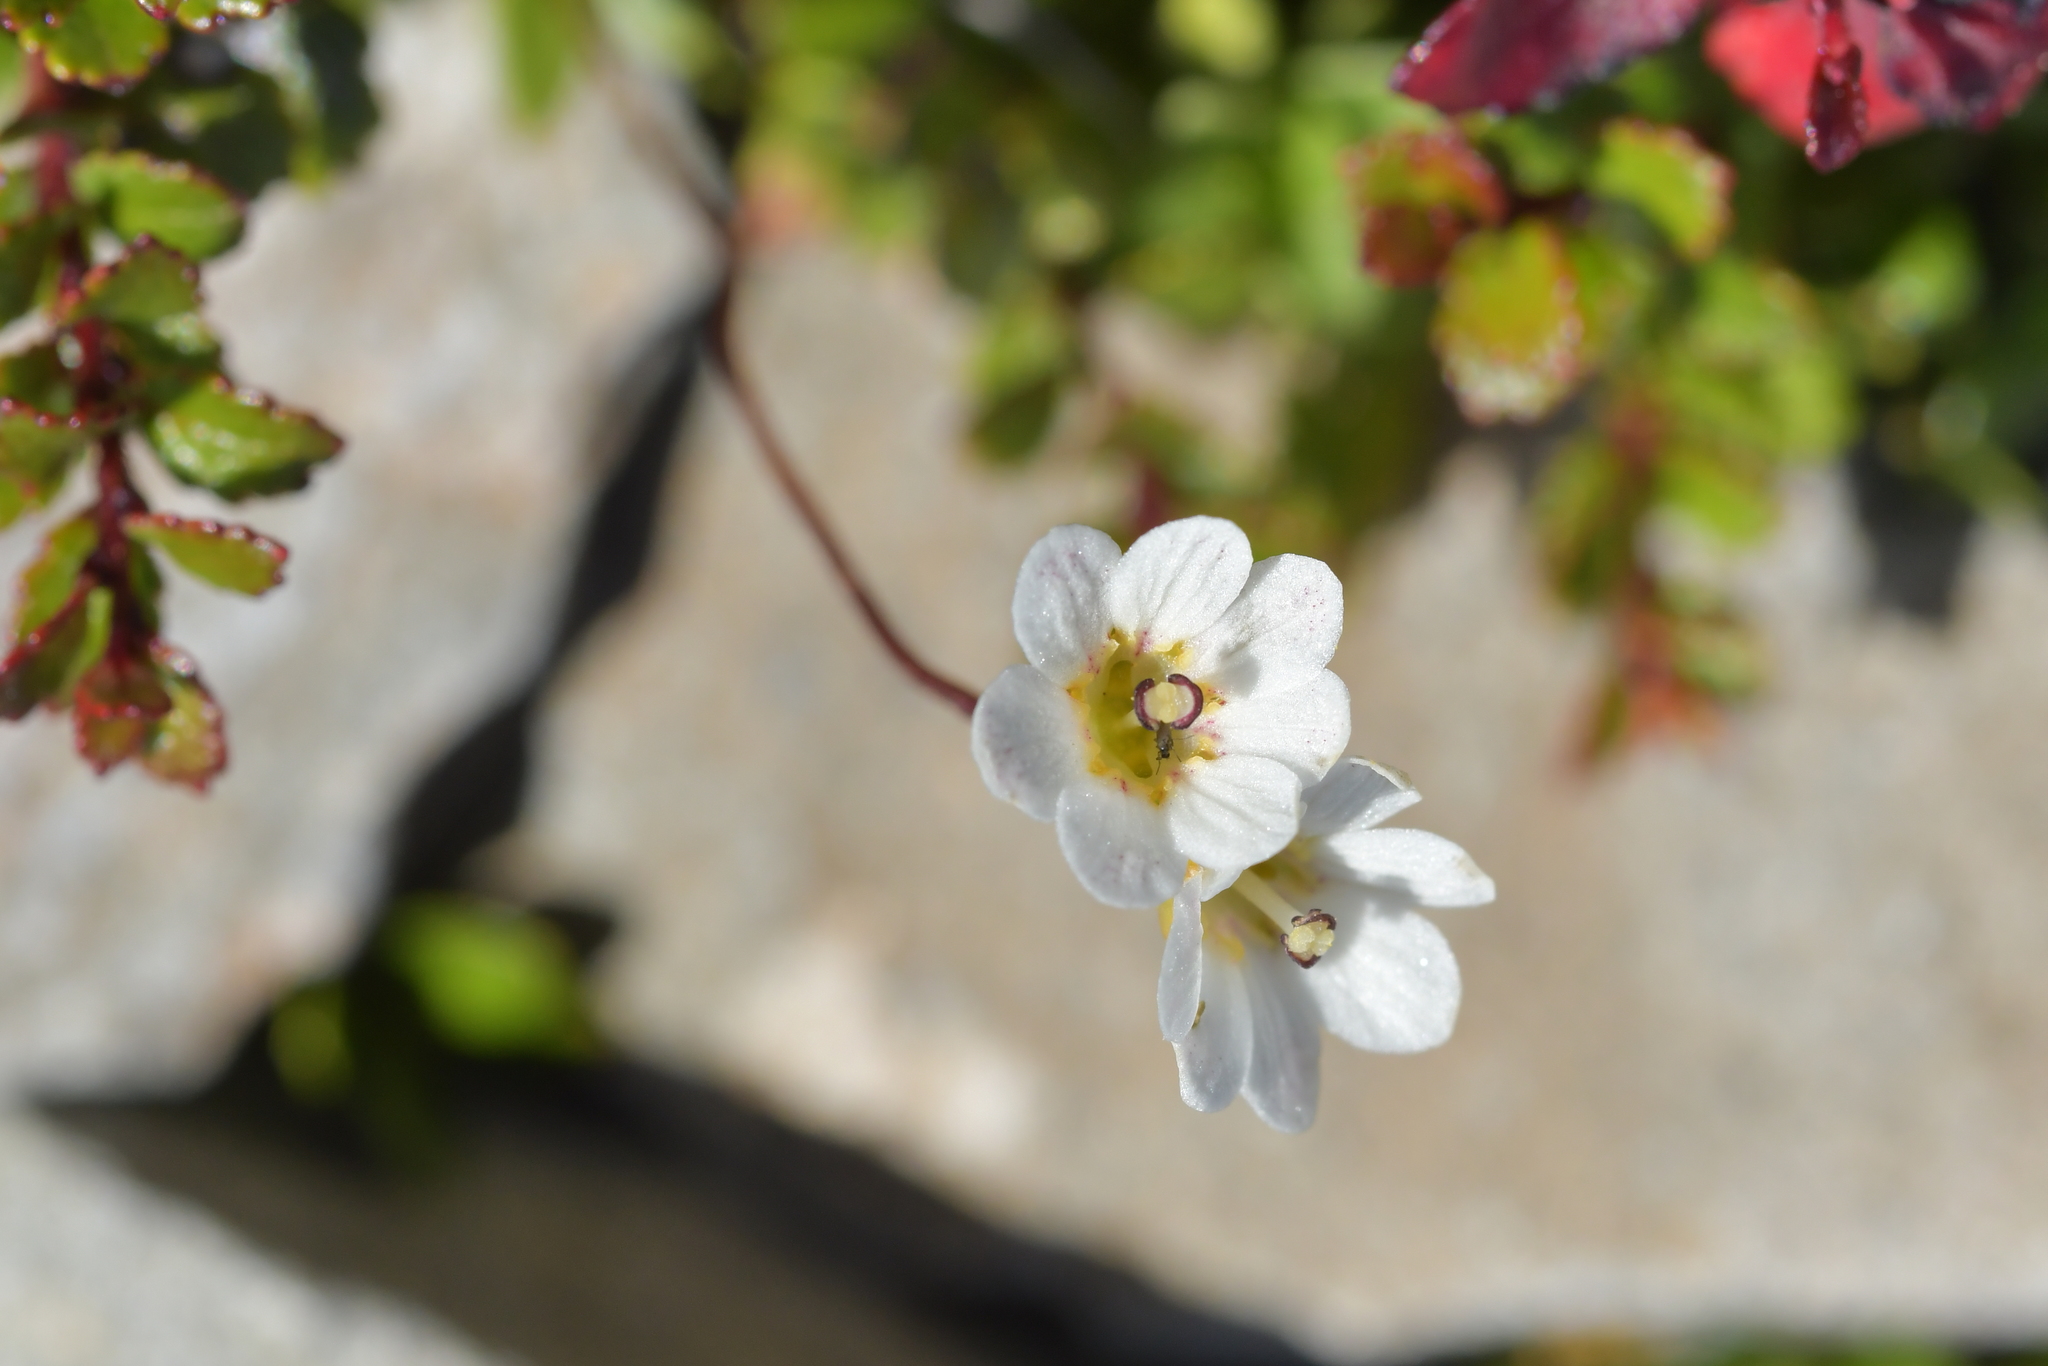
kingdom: Plantae
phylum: Tracheophyta
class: Magnoliopsida
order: Asterales
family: Stylidiaceae
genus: Forstera
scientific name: Forstera tenella
